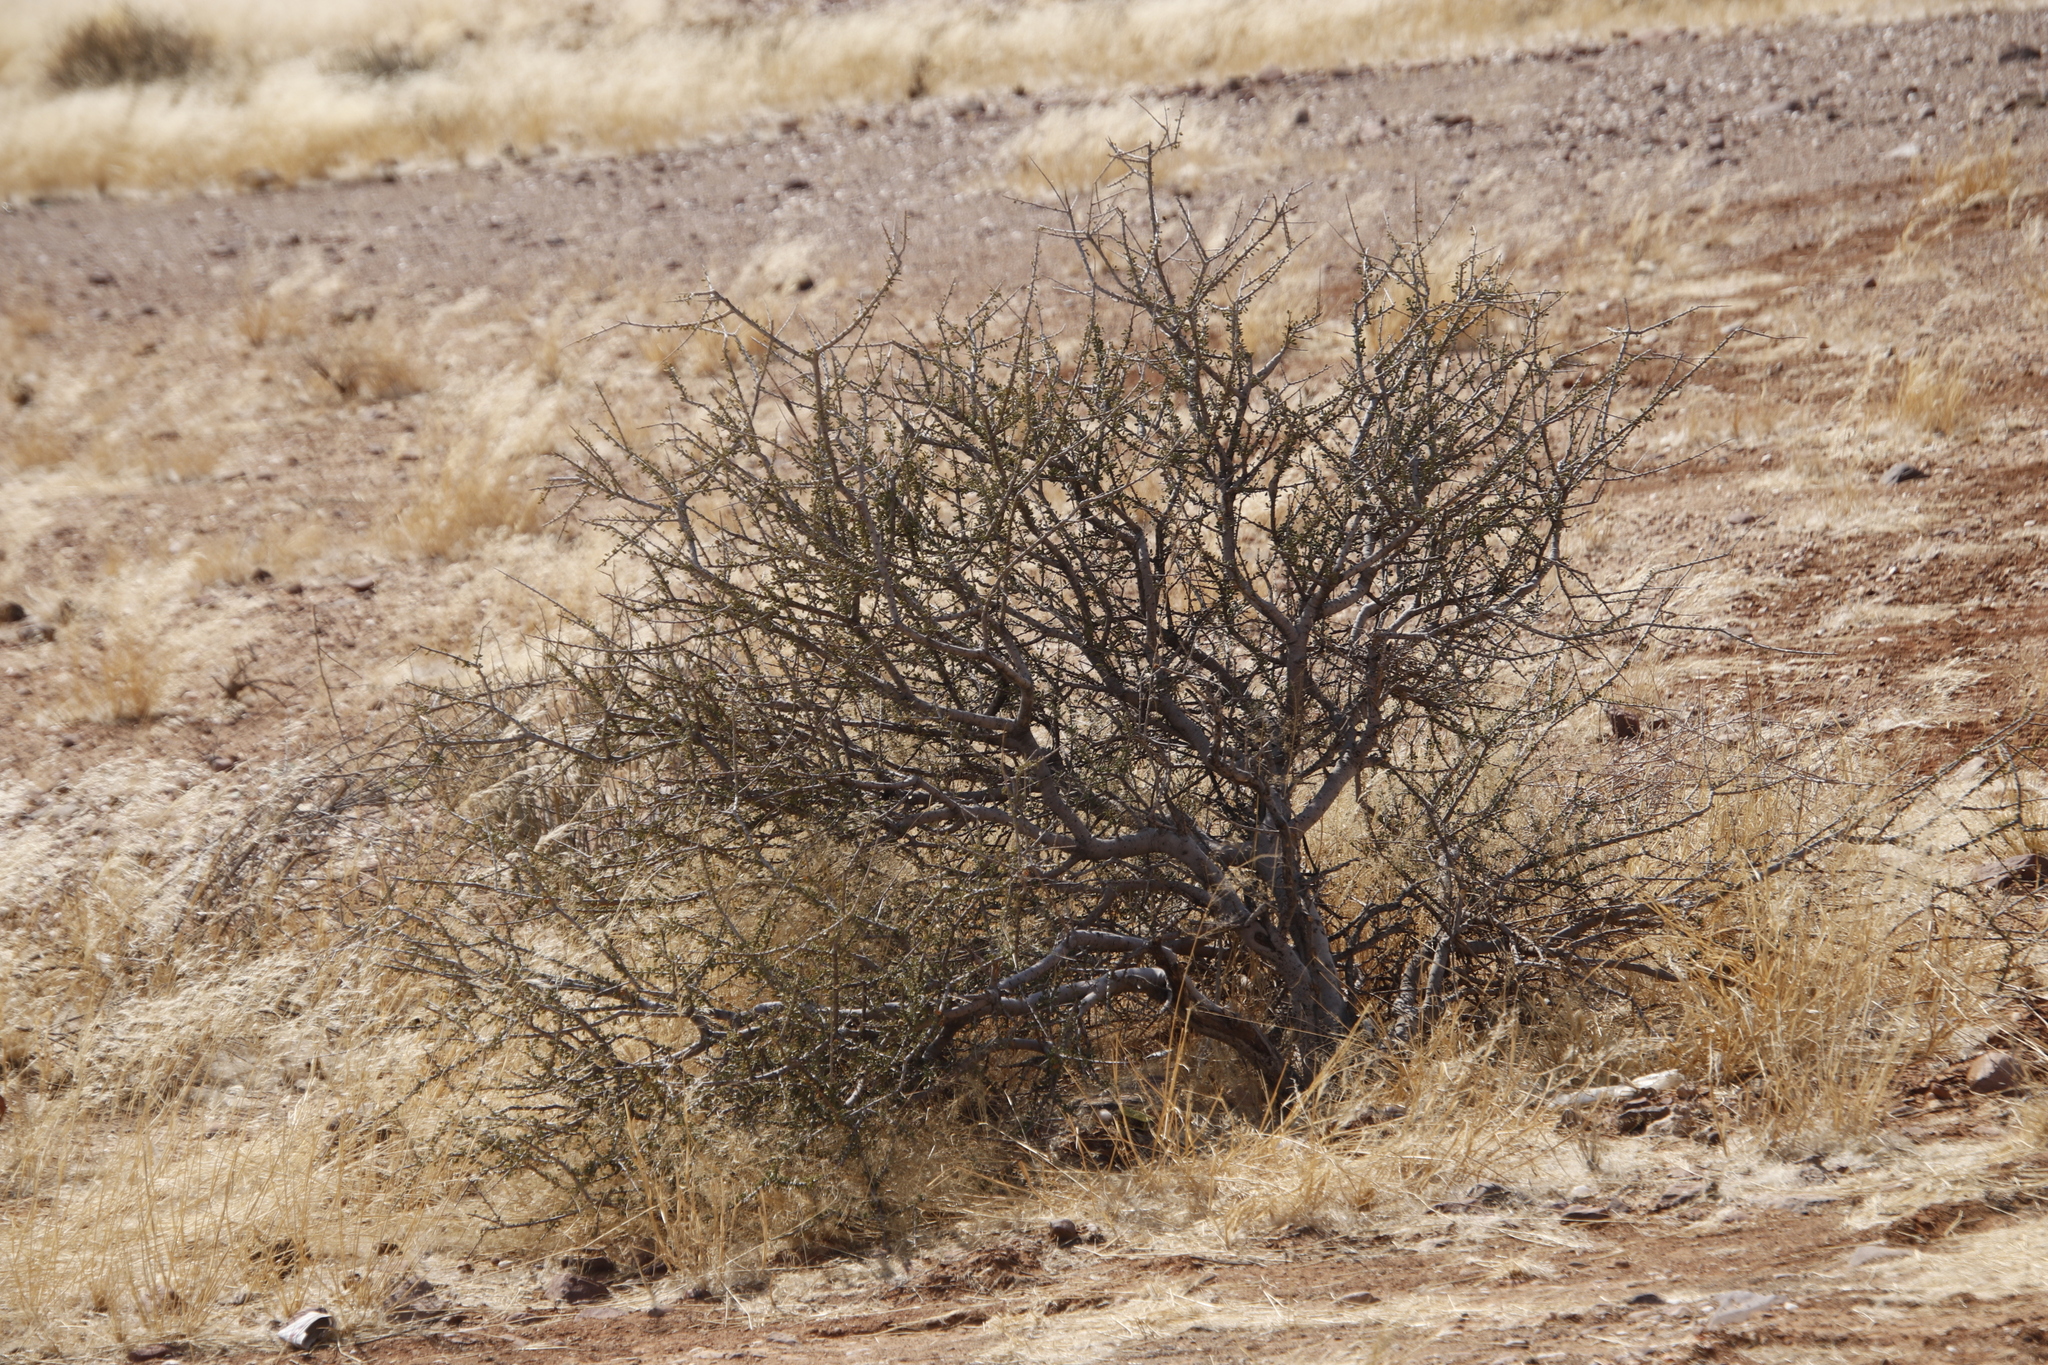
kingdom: Plantae
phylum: Tracheophyta
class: Magnoliopsida
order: Brassicales
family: Capparaceae
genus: Boscia
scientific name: Boscia foetida
